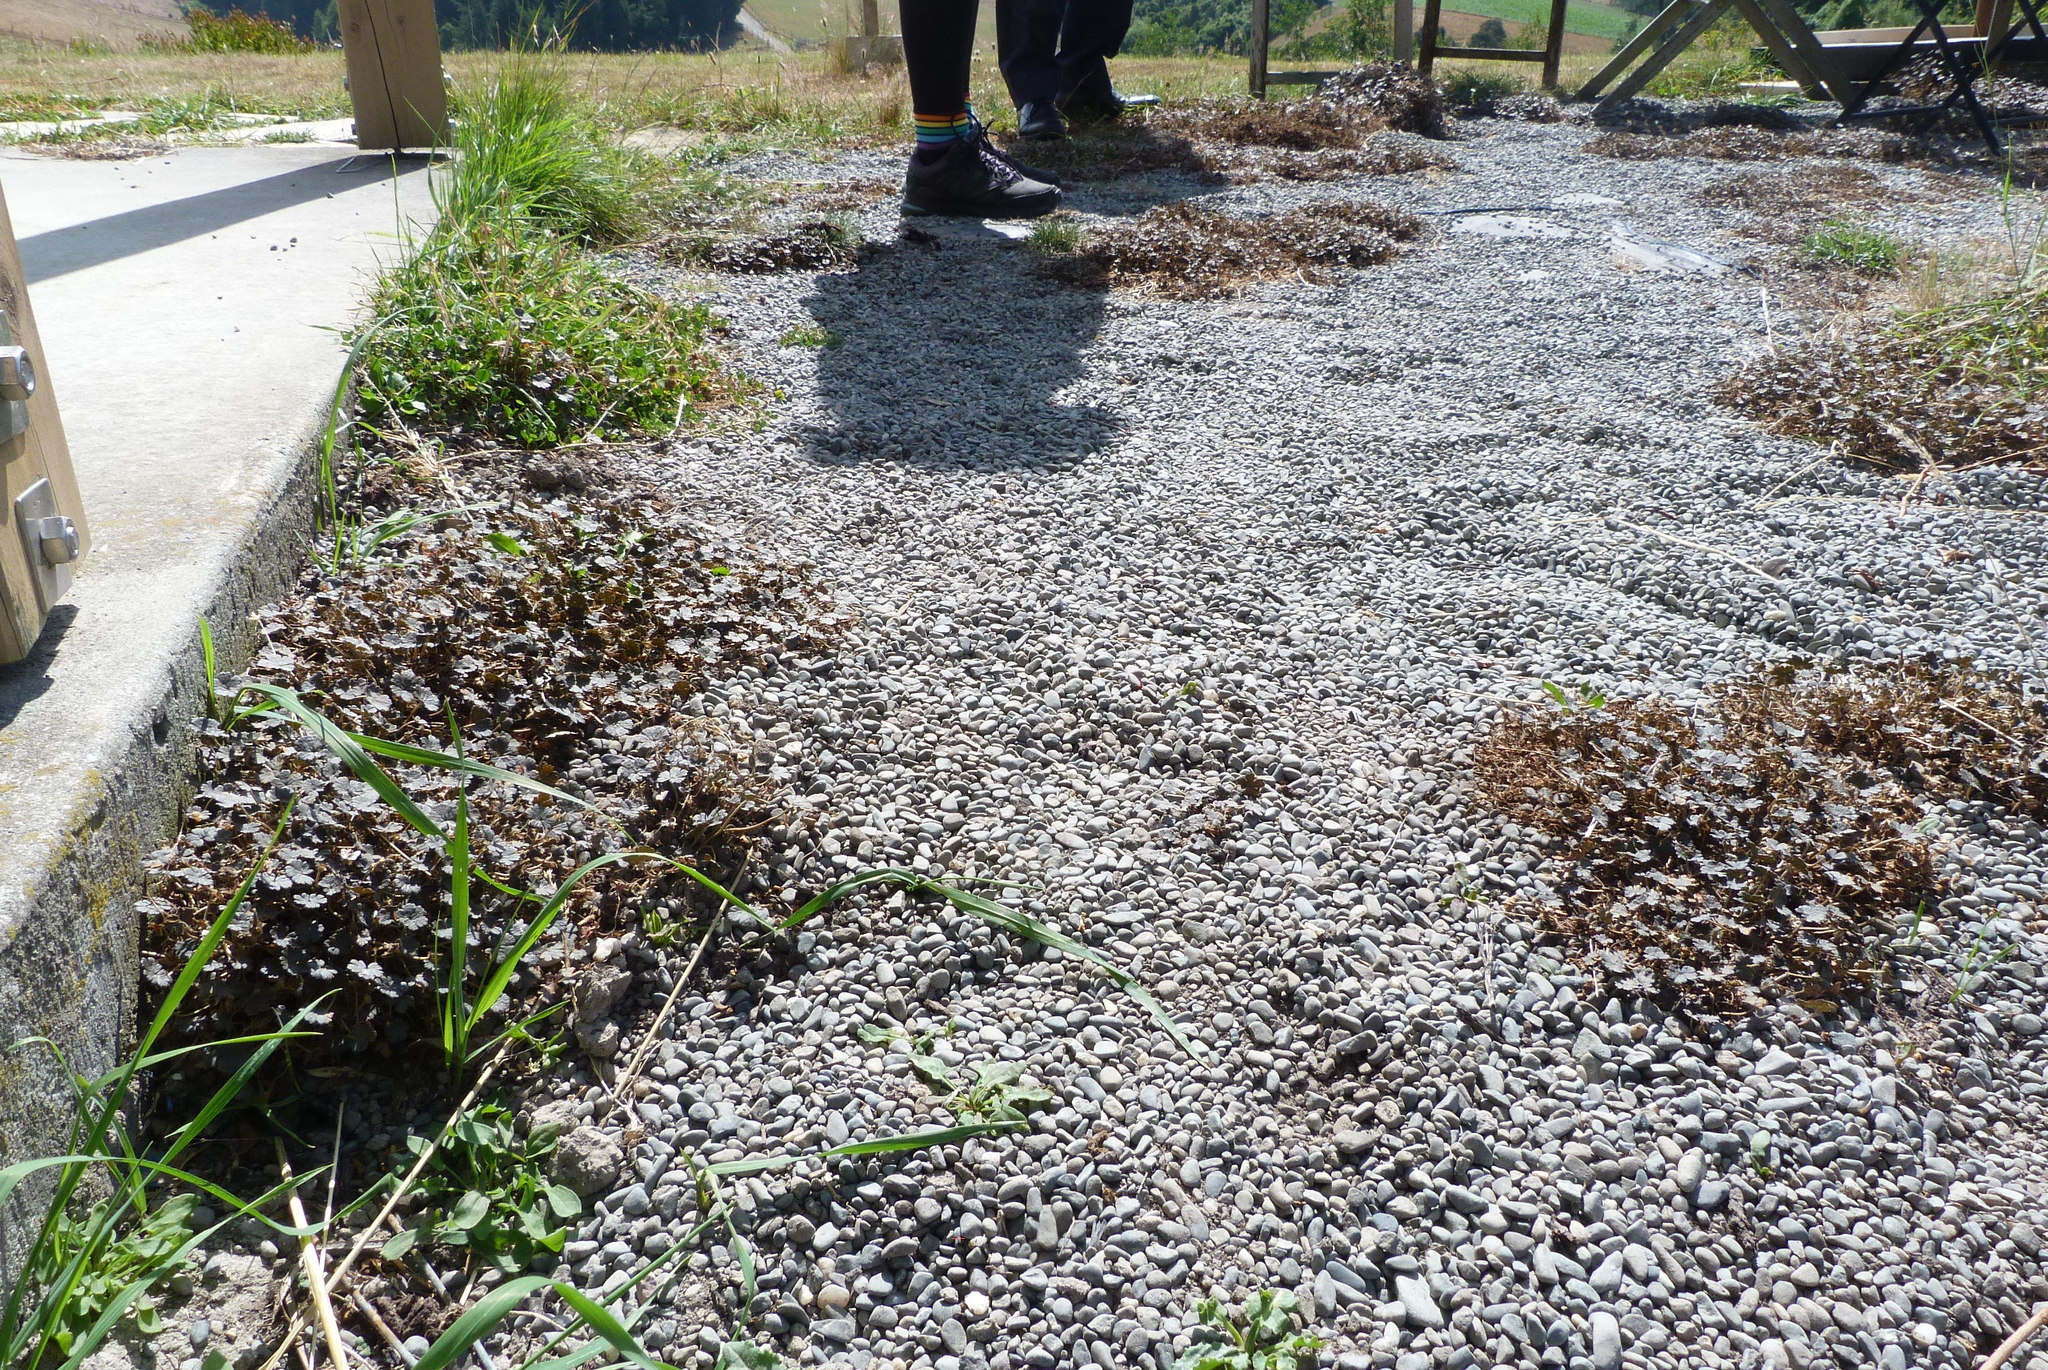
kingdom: Plantae
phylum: Tracheophyta
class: Magnoliopsida
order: Geraniales
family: Geraniaceae
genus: Geranium
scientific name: Geranium brevicaule
